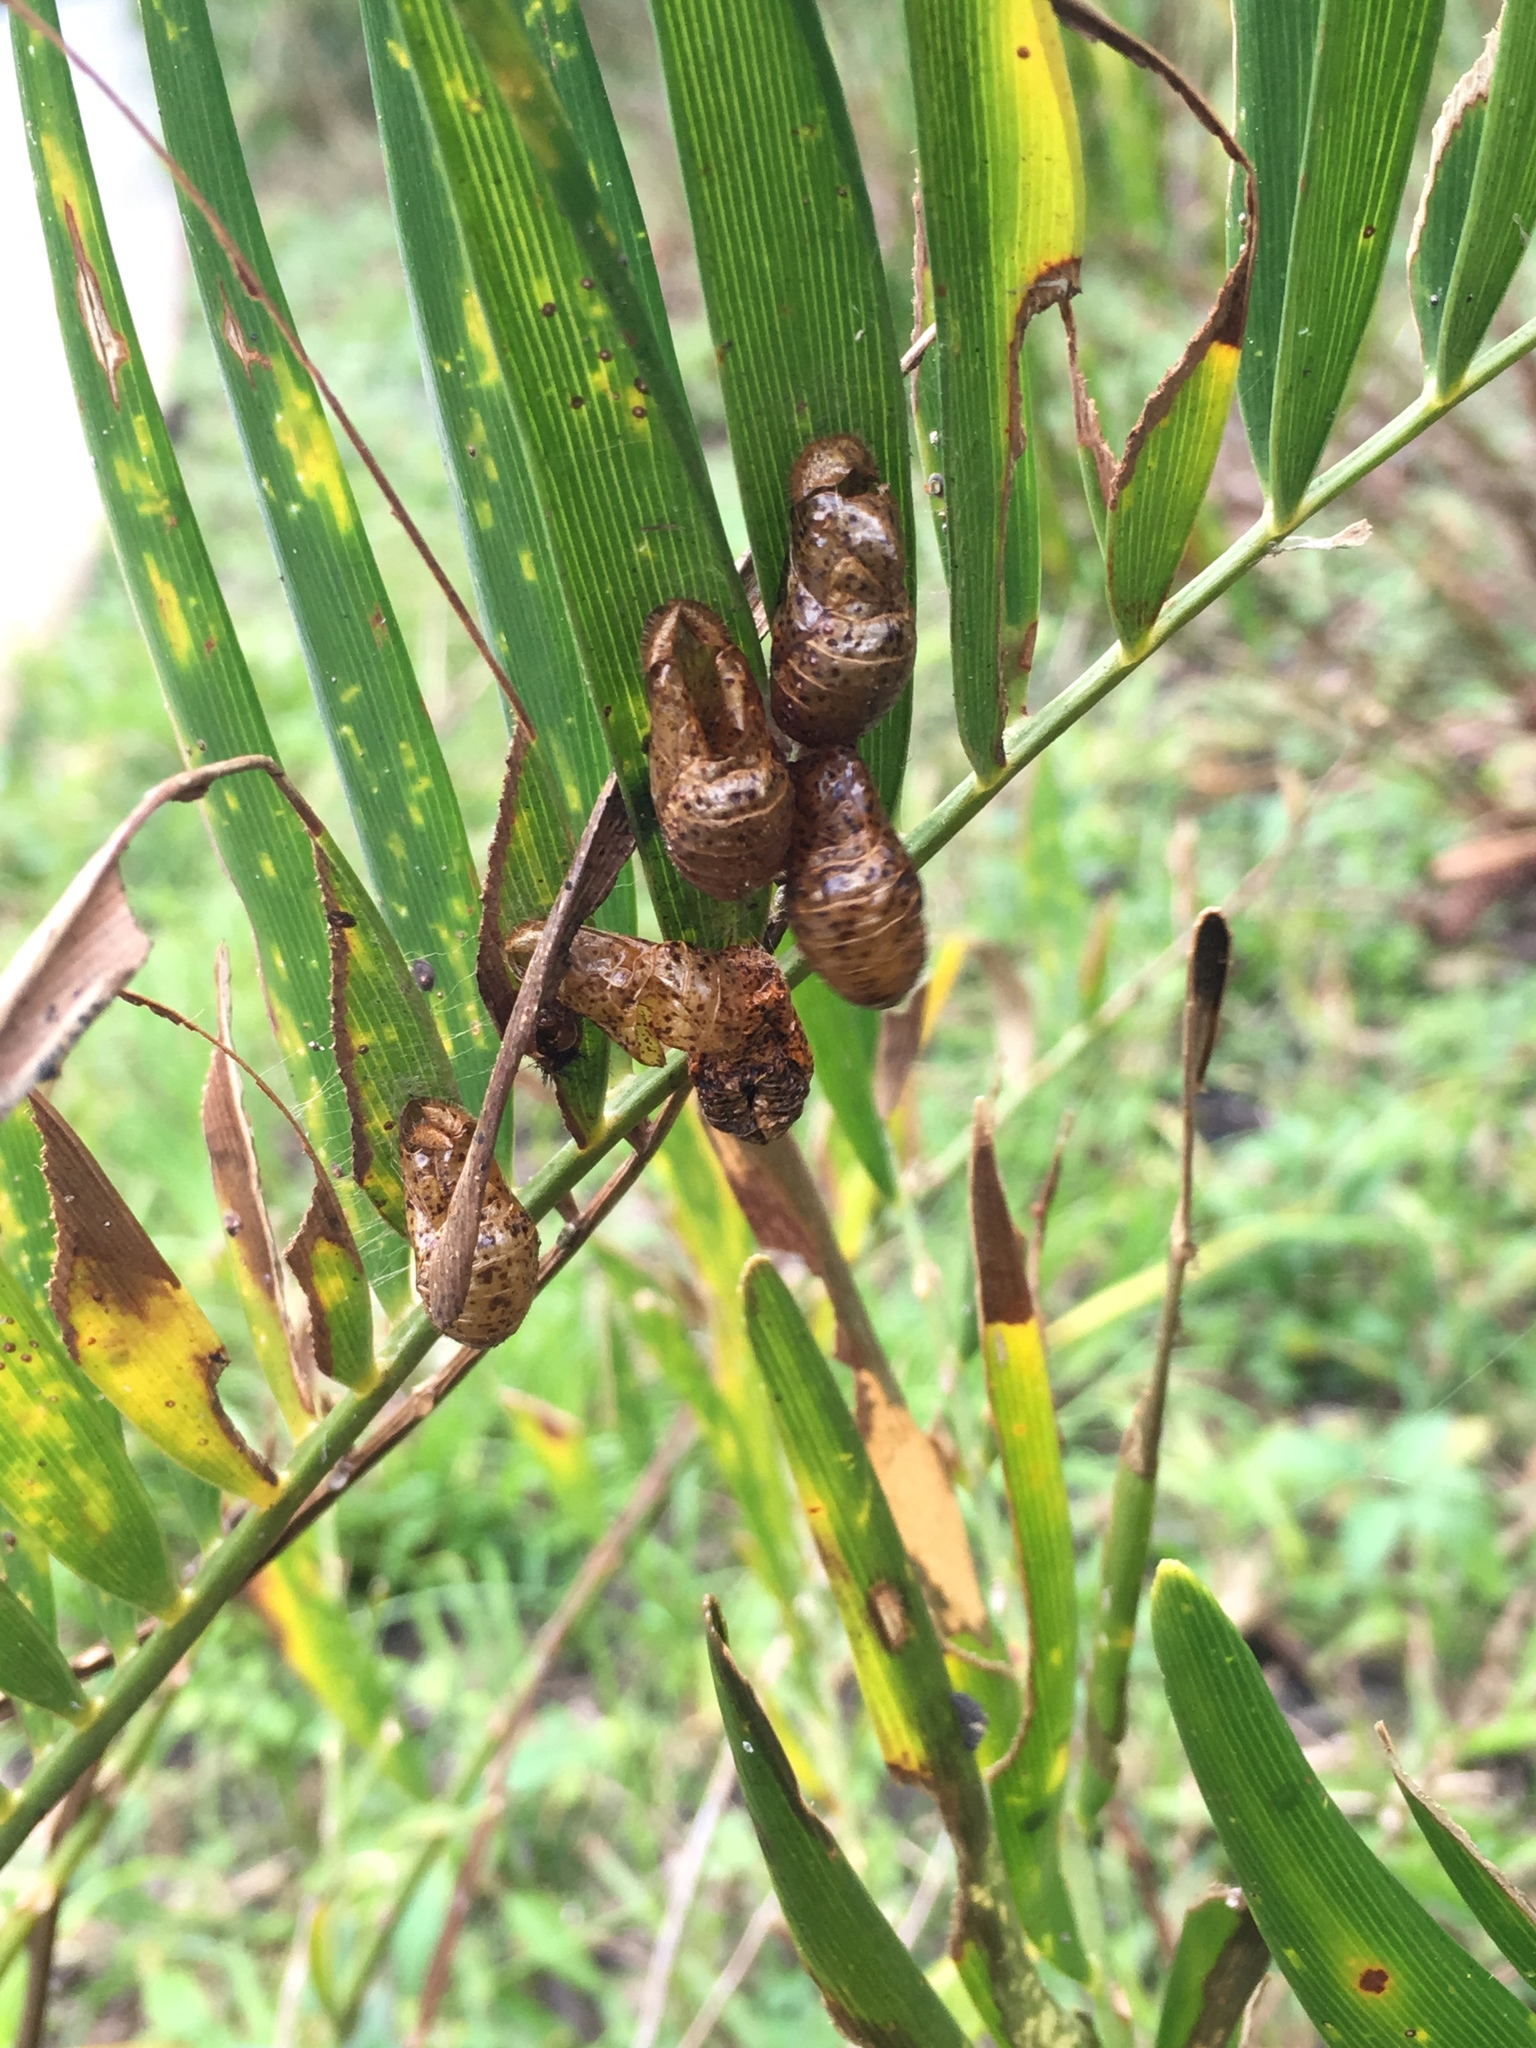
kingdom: Animalia
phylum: Arthropoda
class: Insecta
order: Lepidoptera
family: Lycaenidae
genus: Eumaeus
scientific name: Eumaeus atala
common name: Atala
